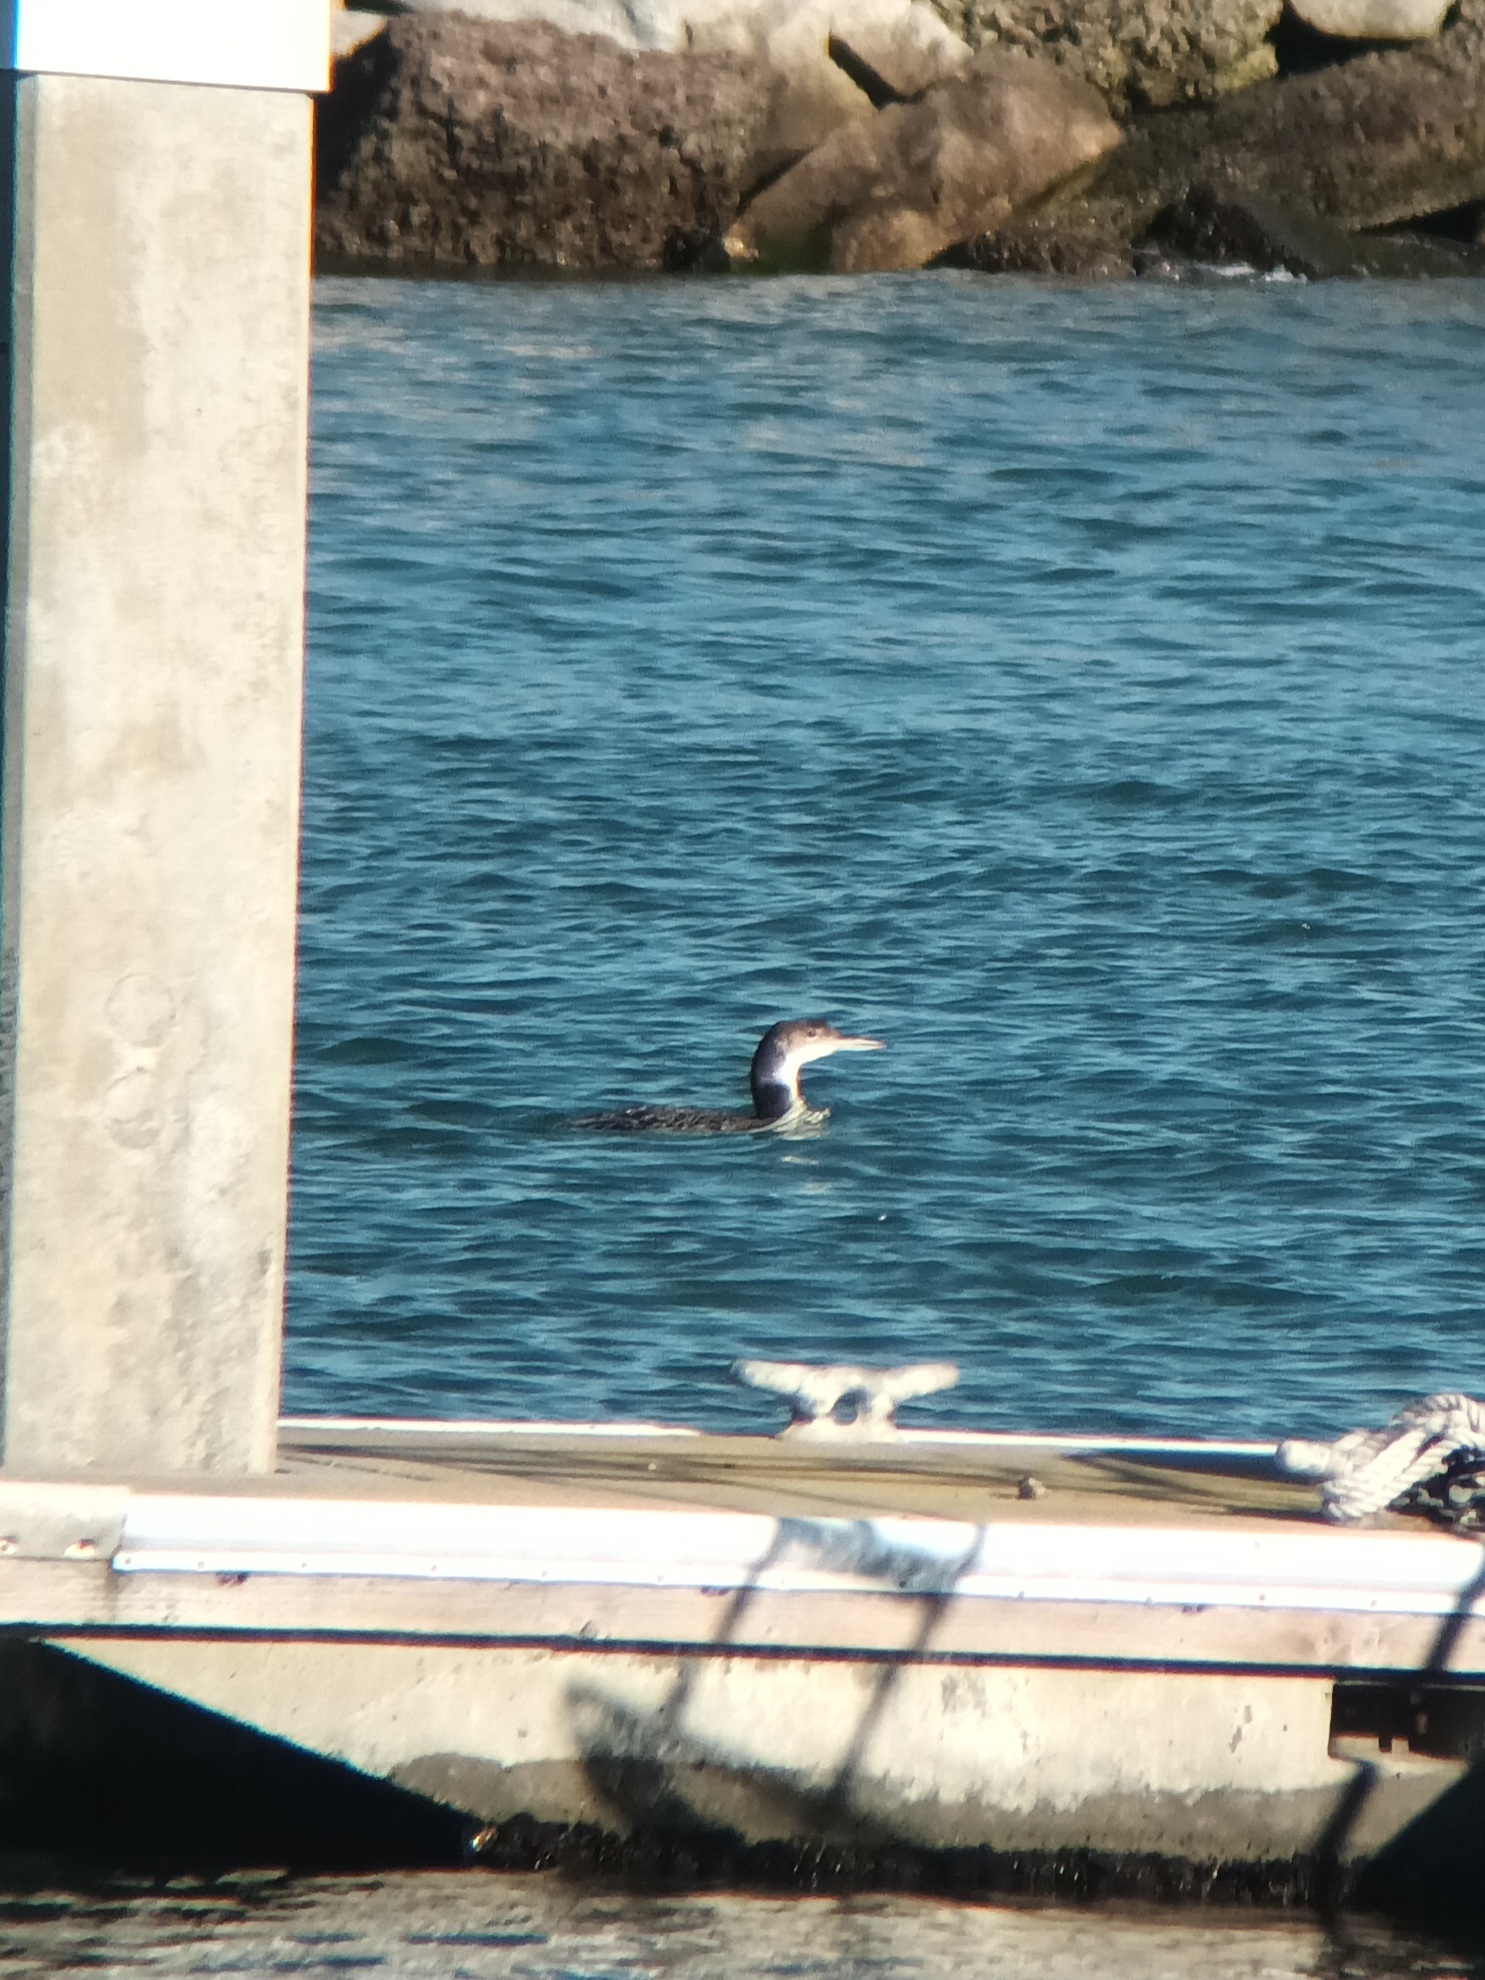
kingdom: Animalia
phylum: Chordata
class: Aves
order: Gaviiformes
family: Gaviidae
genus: Gavia
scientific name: Gavia immer
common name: Common loon
